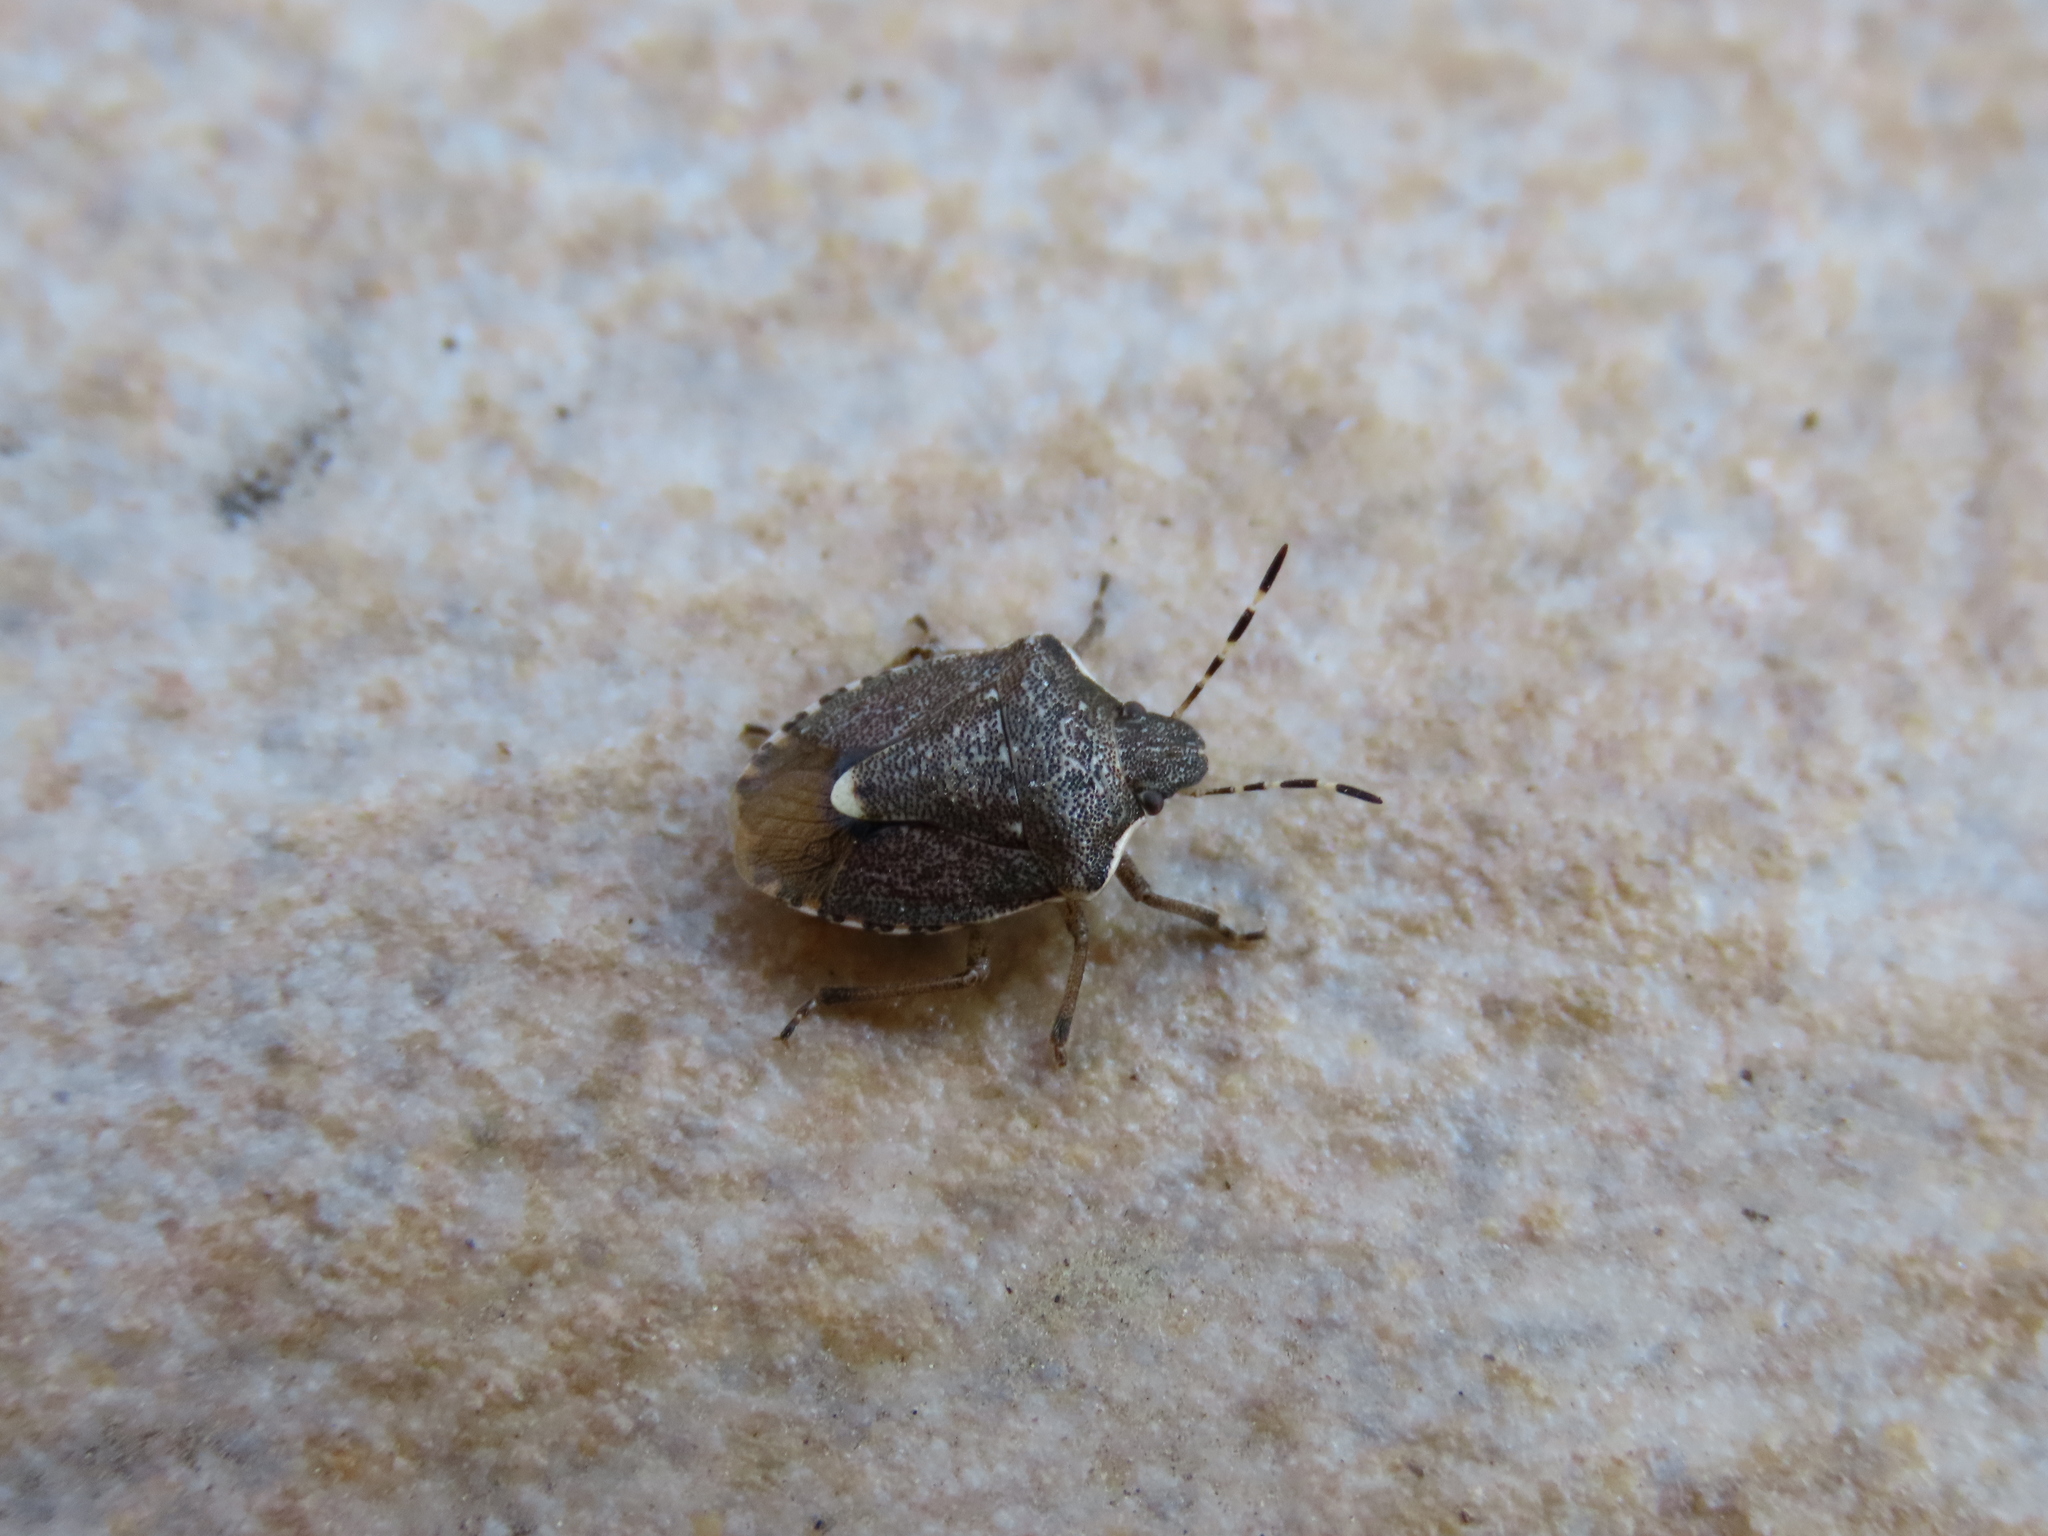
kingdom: Animalia
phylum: Arthropoda
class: Insecta
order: Hemiptera
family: Pentatomidae
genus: Holcostethus
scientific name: Holcostethus albipes
